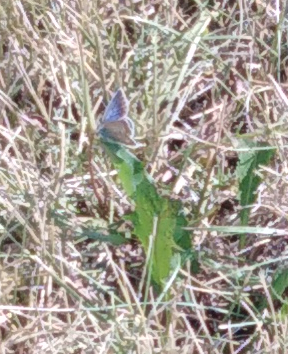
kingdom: Animalia
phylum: Arthropoda
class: Insecta
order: Lepidoptera
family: Lycaenidae
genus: Polyommatus
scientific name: Polyommatus icarus
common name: Common blue
